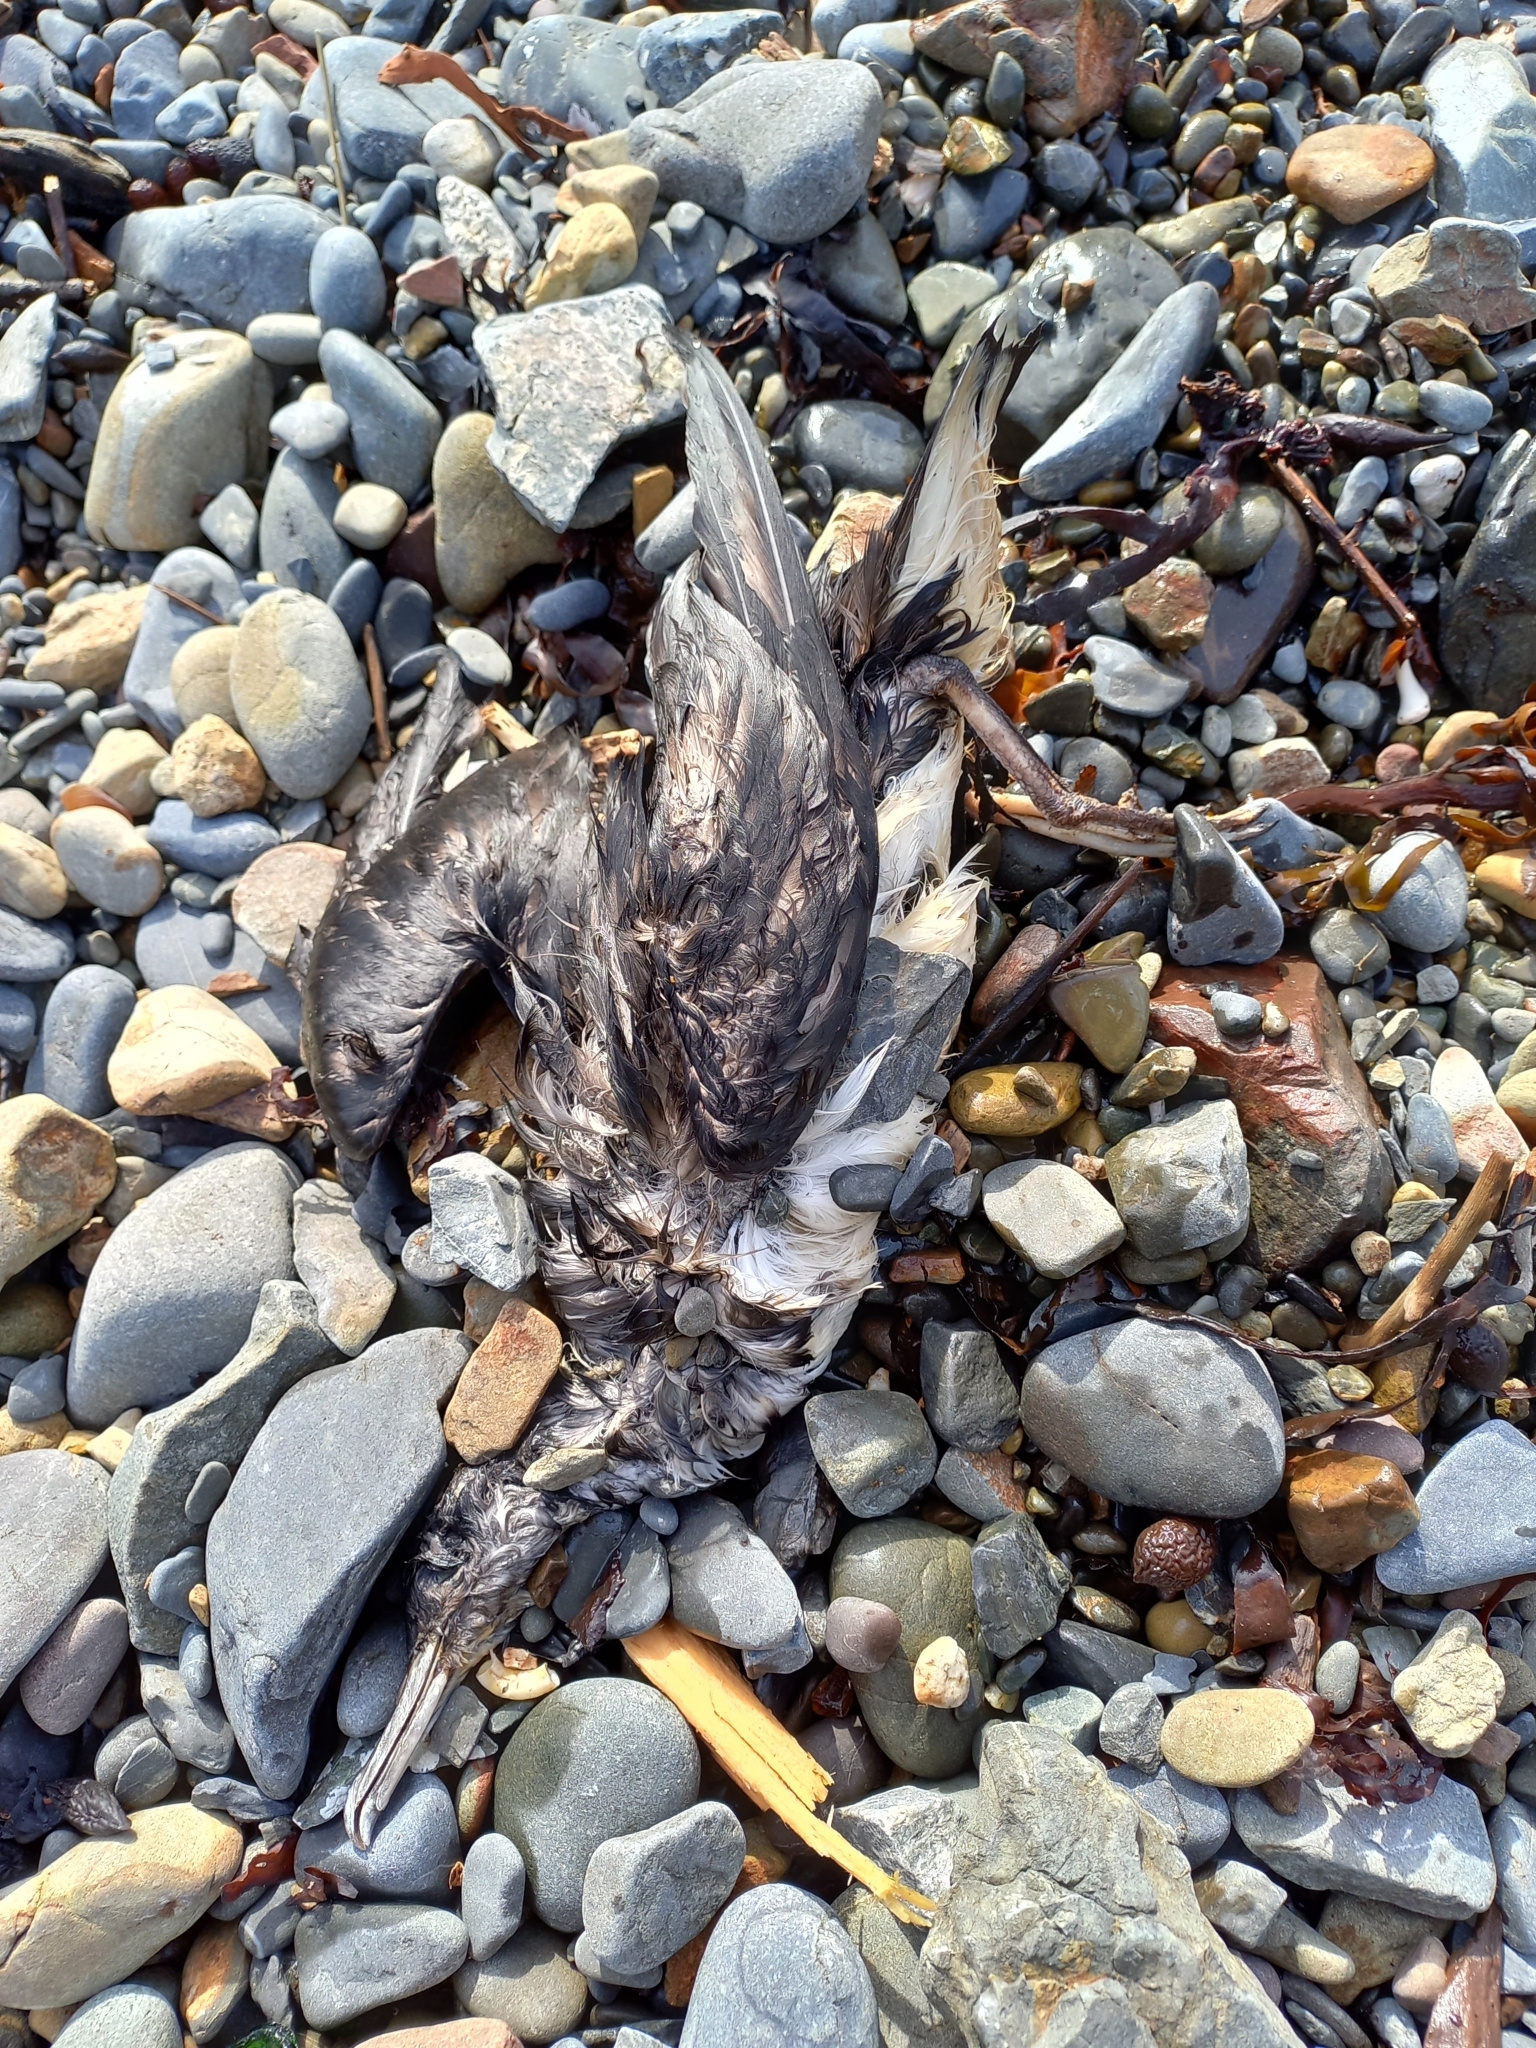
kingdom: Animalia
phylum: Chordata
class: Aves
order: Procellariiformes
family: Procellariidae
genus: Puffinus
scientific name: Puffinus gavia
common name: Fluttering shearwater
